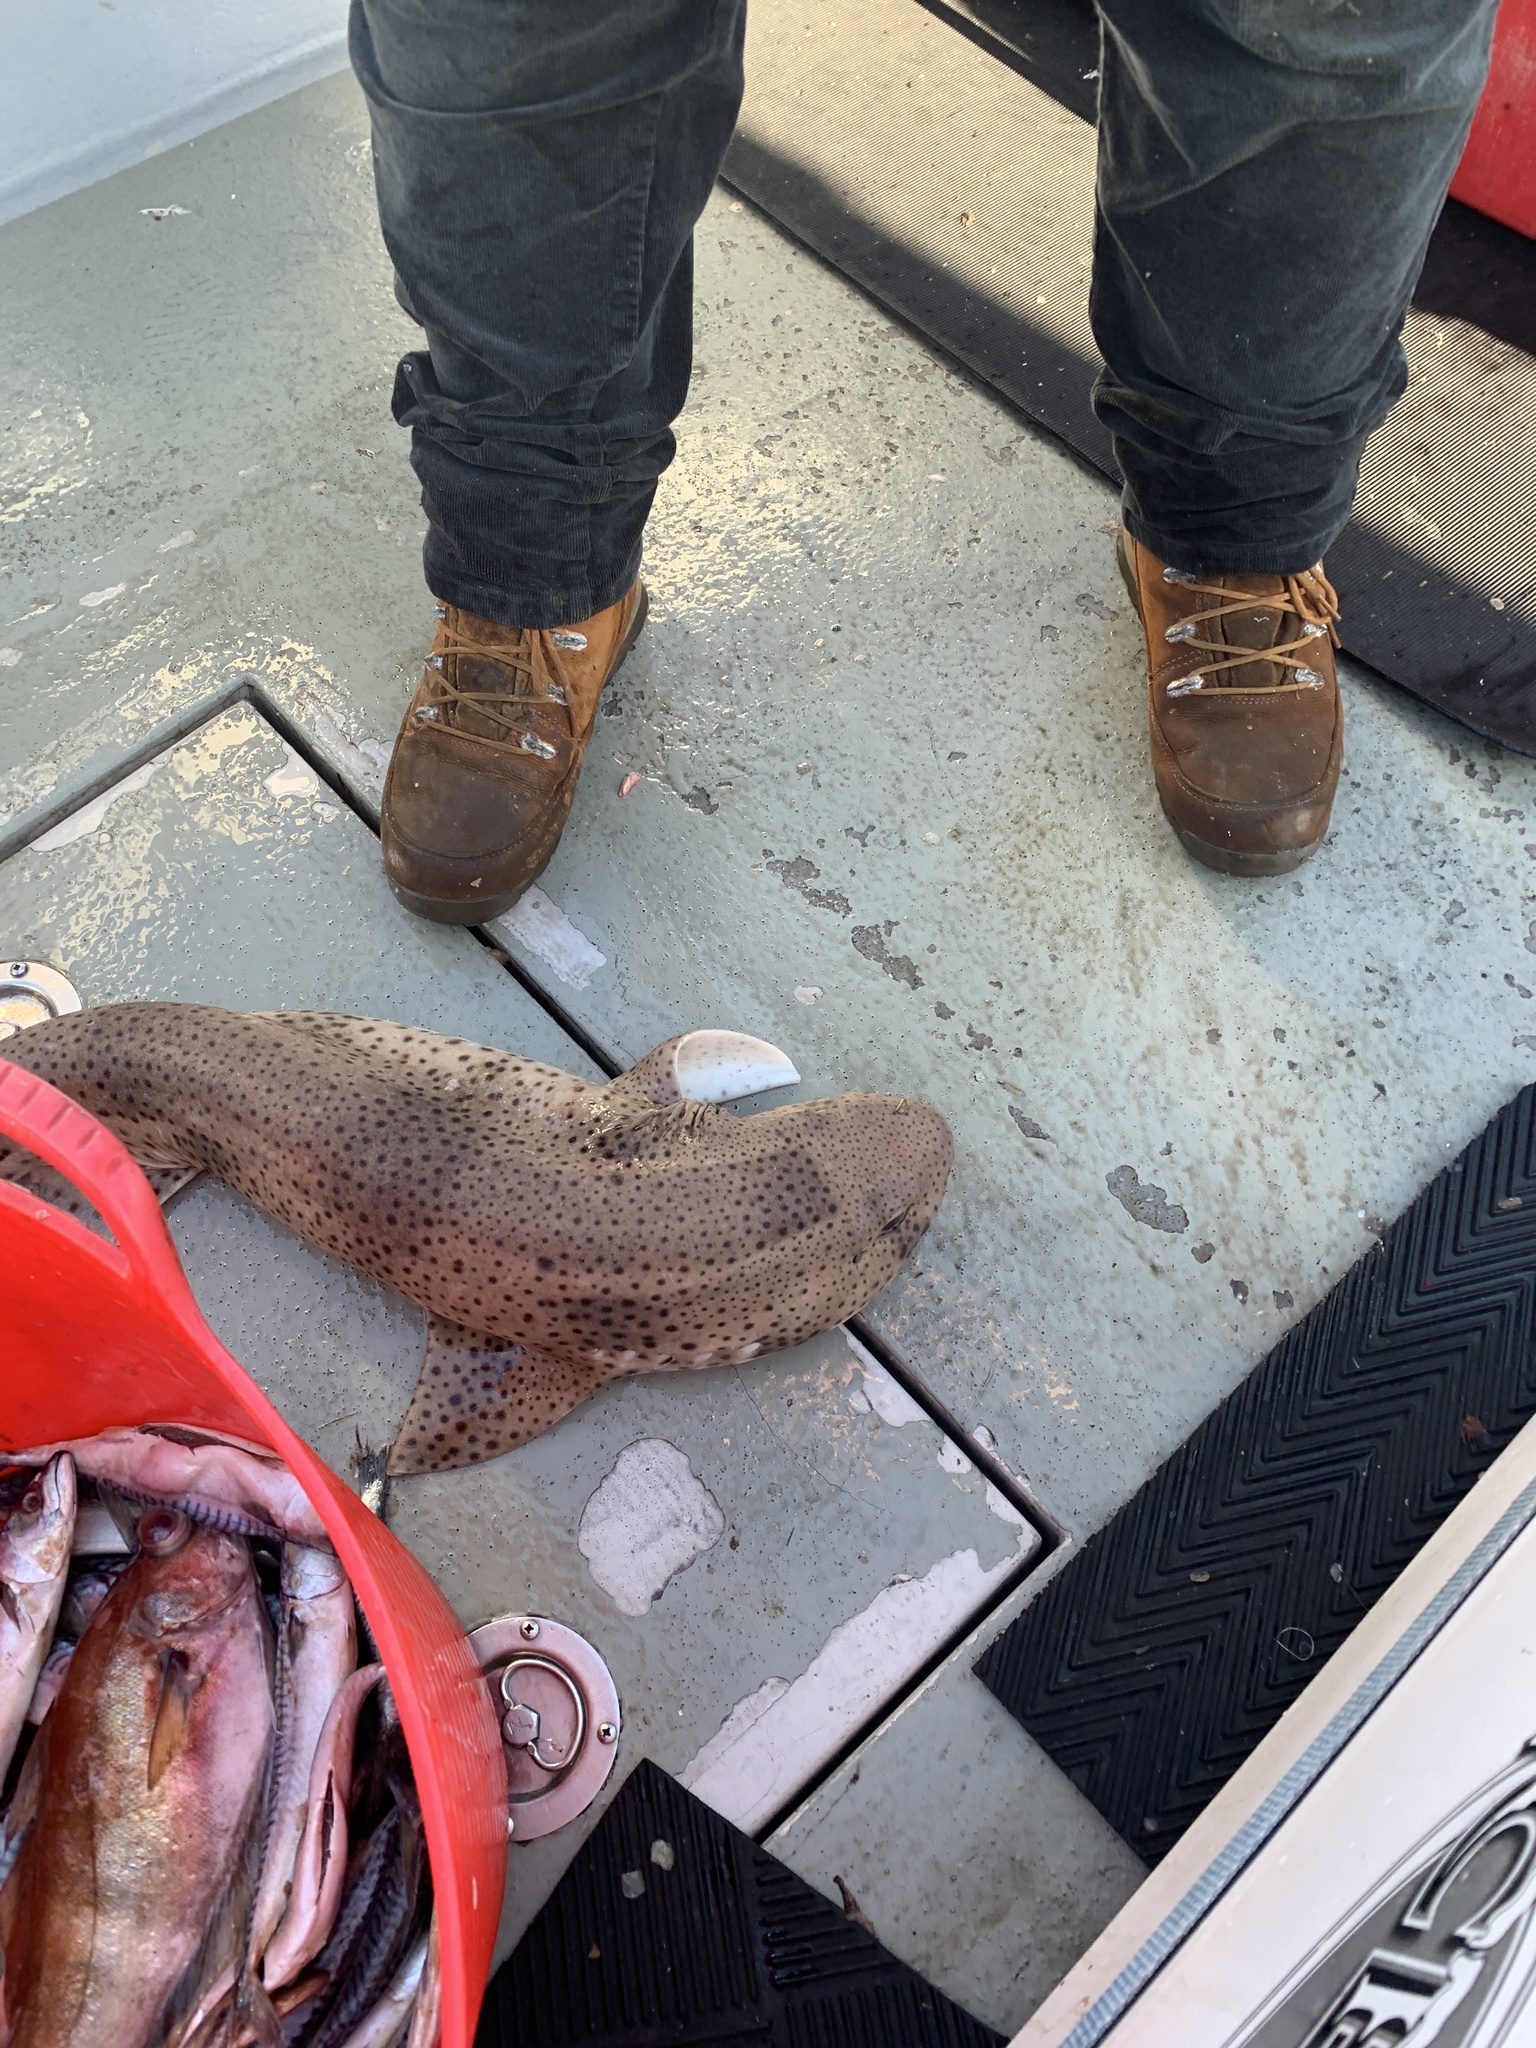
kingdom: Animalia
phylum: Chordata
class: Elasmobranchii
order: Carcharhiniformes
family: Scyliorhinidae
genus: Scyliorhinus
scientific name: Scyliorhinus stellaris
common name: Nursehound
